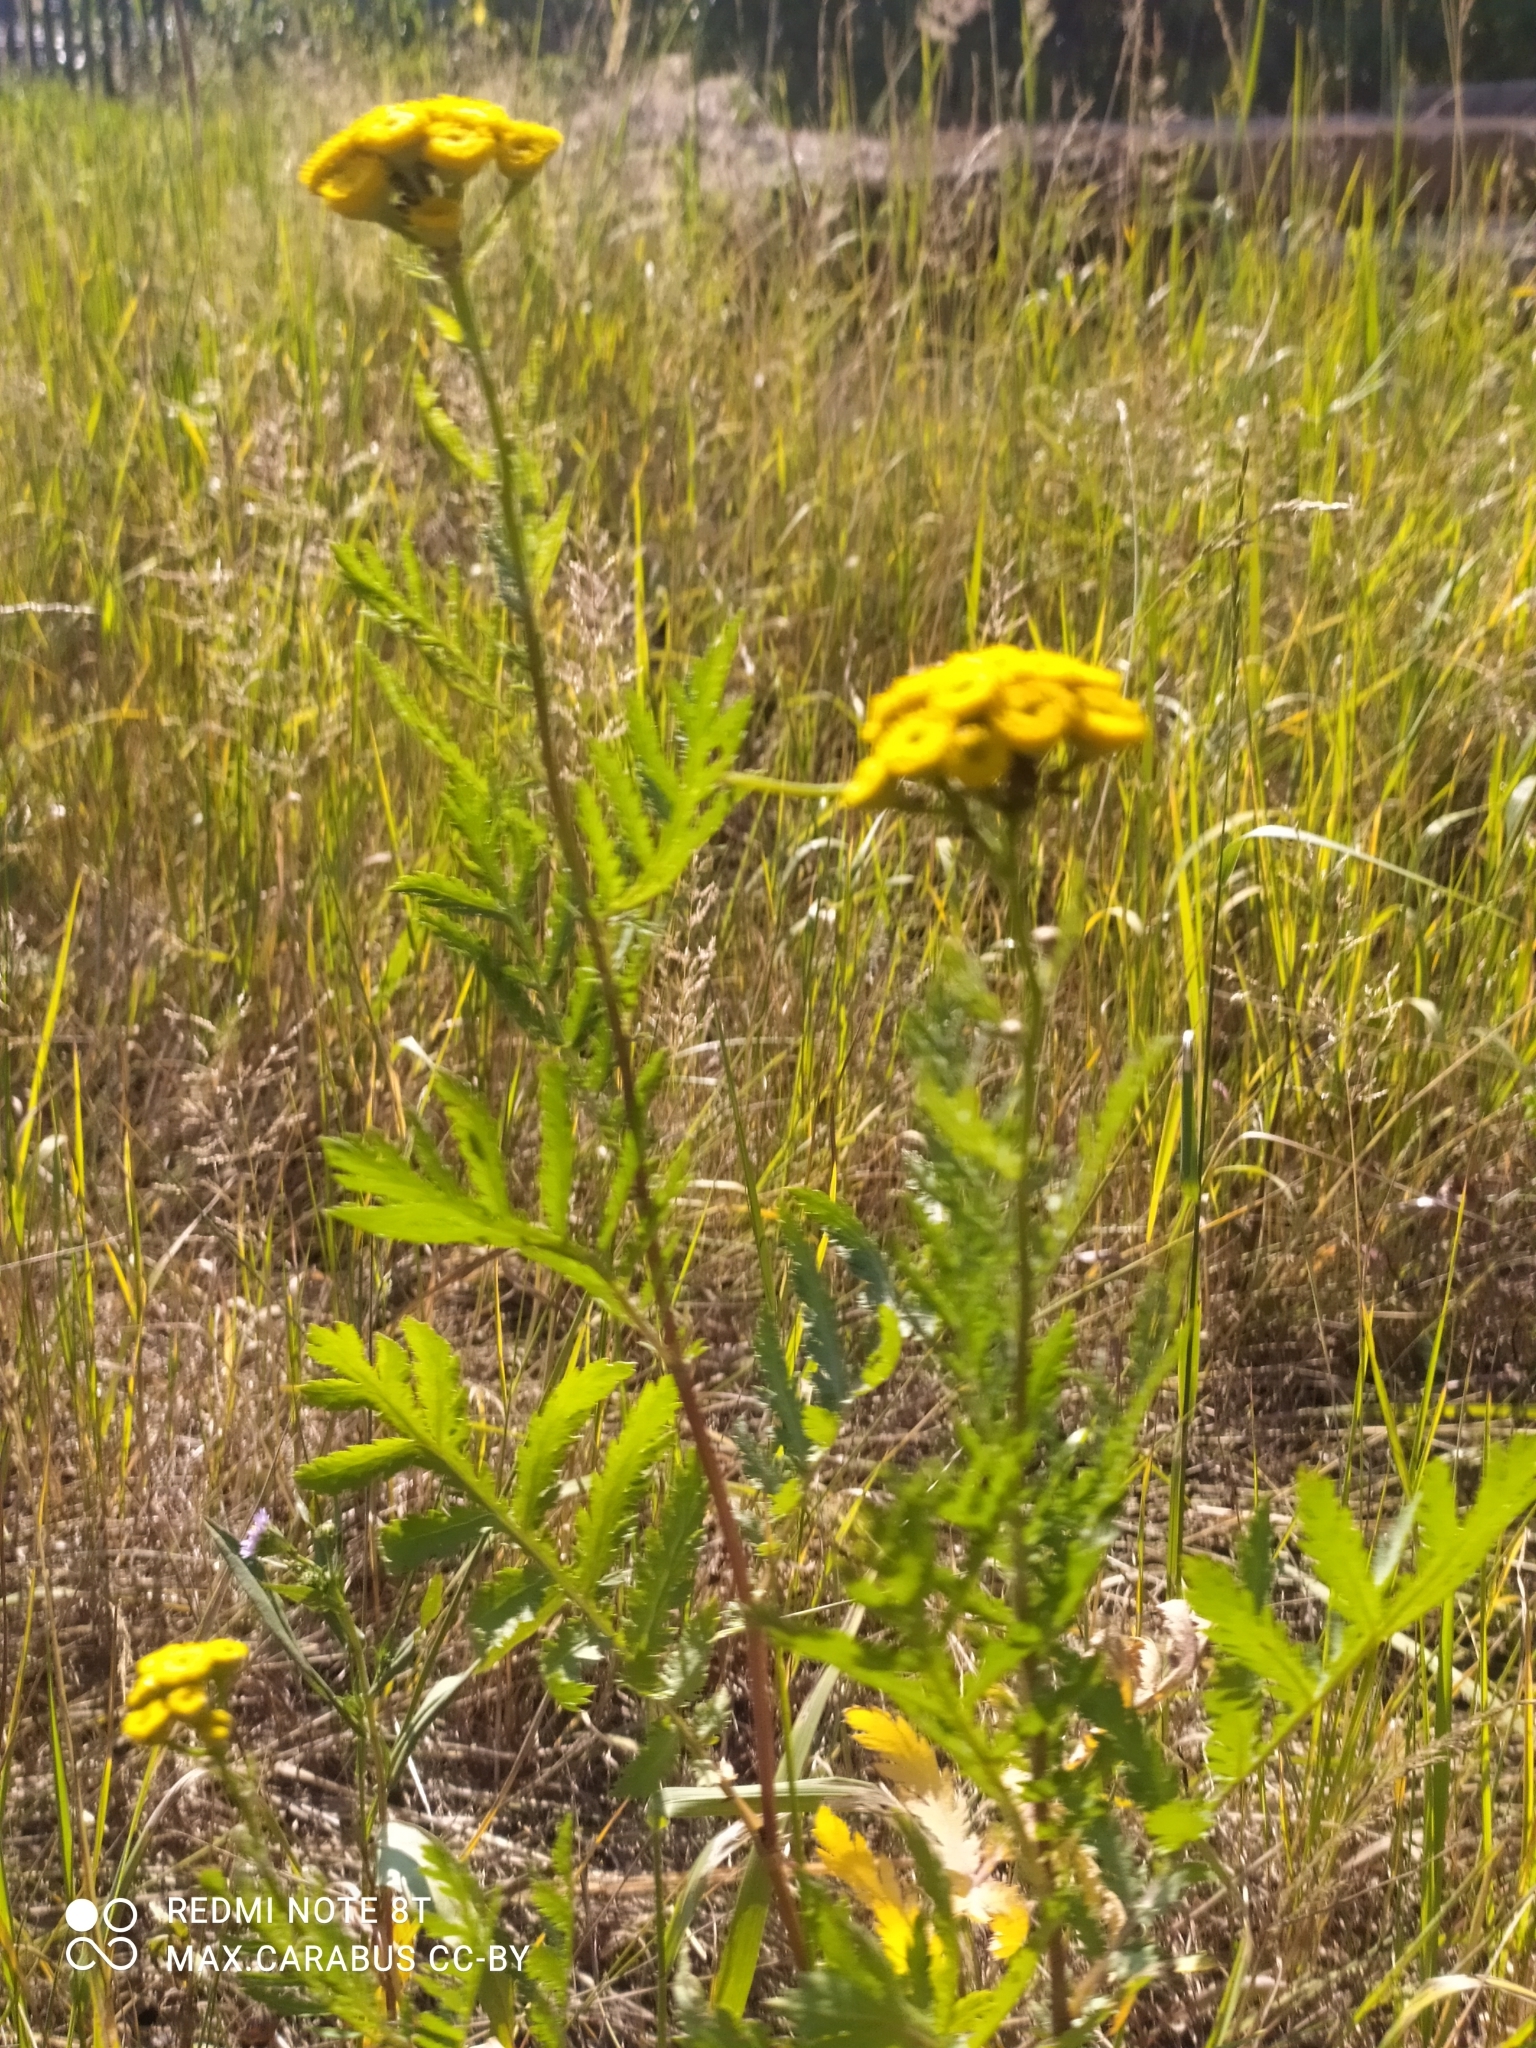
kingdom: Plantae
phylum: Tracheophyta
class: Magnoliopsida
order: Asterales
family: Asteraceae
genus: Tanacetum
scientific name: Tanacetum vulgare
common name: Common tansy
